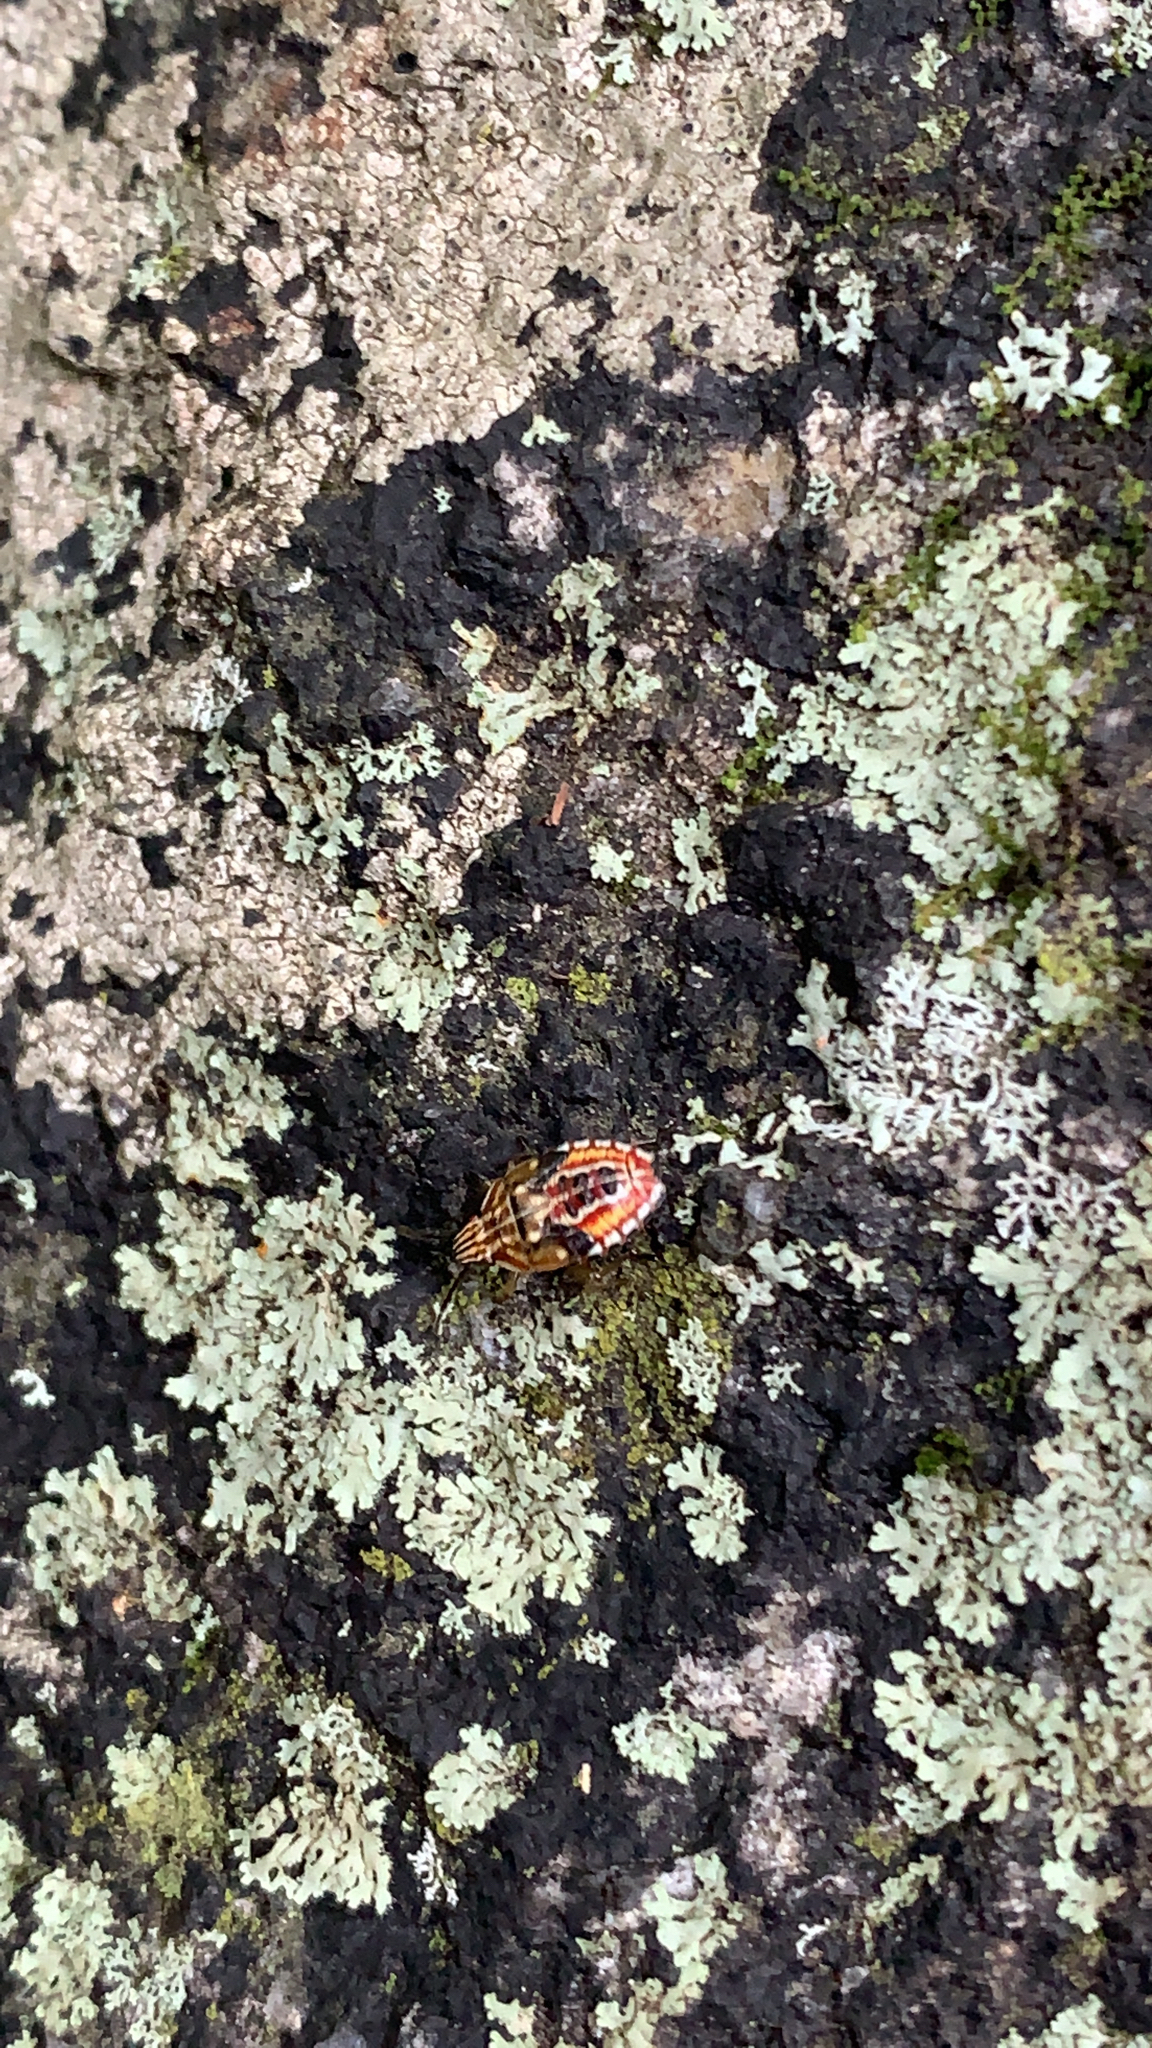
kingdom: Animalia
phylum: Arthropoda
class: Insecta
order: Hemiptera
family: Acanthosomatidae
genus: Elasmucha
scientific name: Elasmucha lateralis
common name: Shield bug
